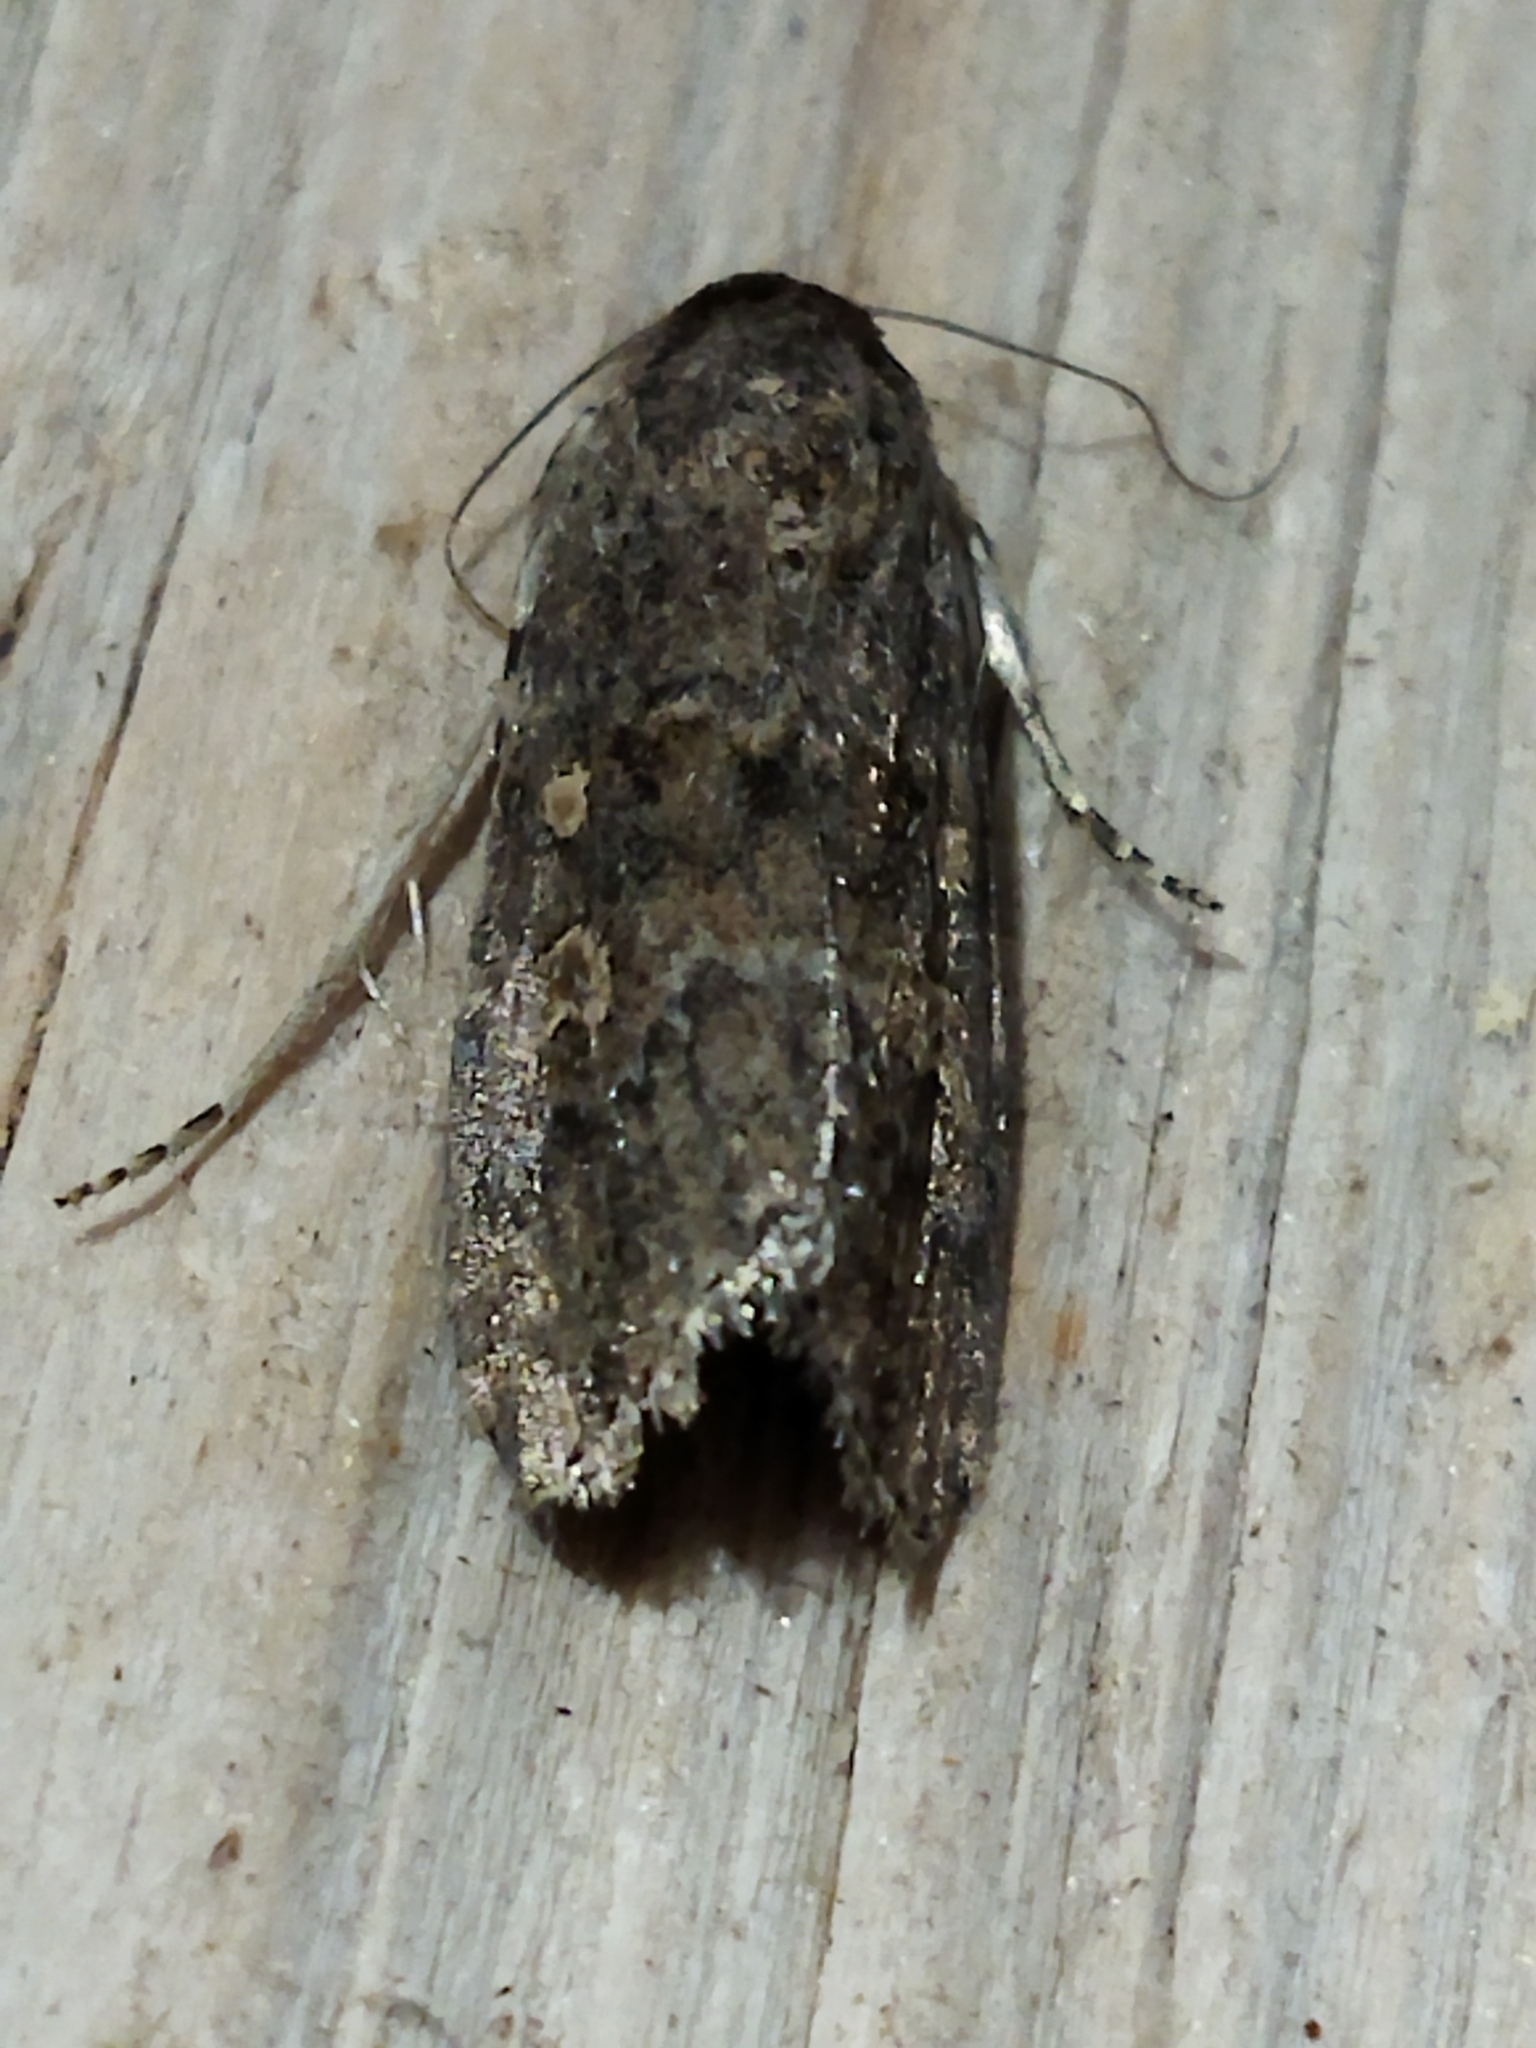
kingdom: Animalia
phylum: Arthropoda
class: Insecta
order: Lepidoptera
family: Noctuidae
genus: Spodoptera
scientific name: Spodoptera exigua
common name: Beet armyworm
